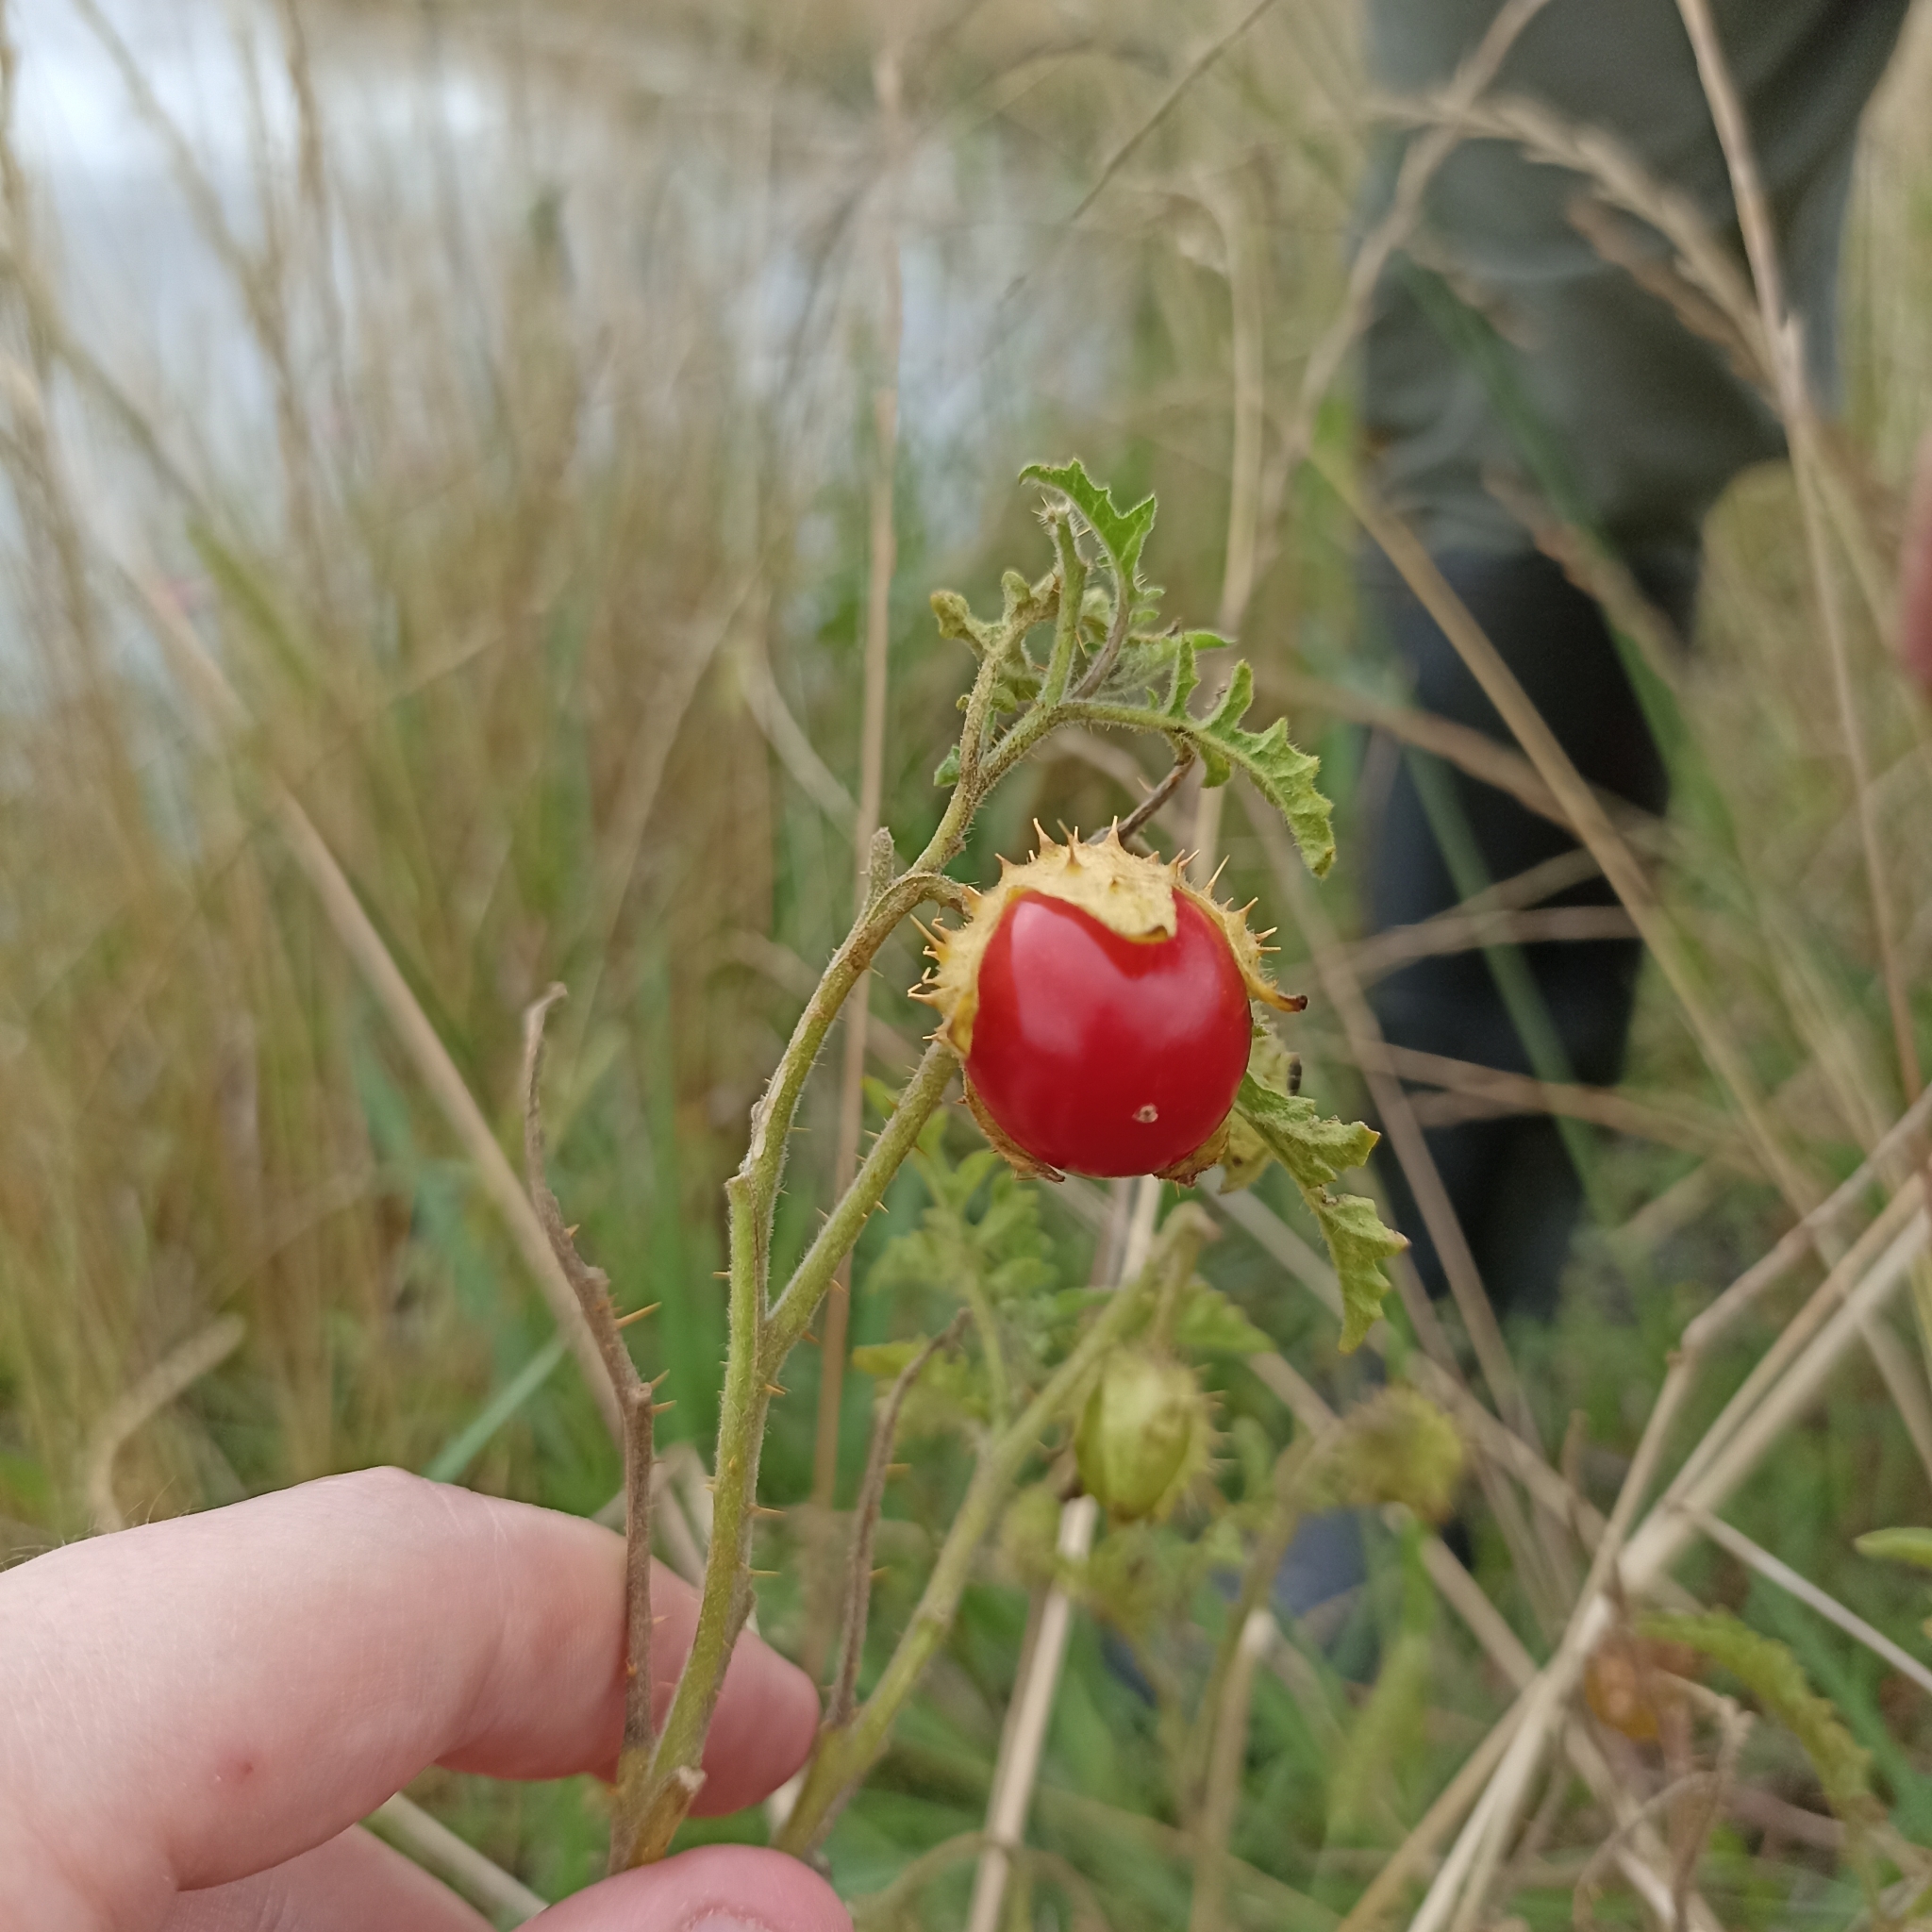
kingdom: Plantae
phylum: Tracheophyta
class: Magnoliopsida
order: Solanales
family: Solanaceae
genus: Solanum
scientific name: Solanum sisymbriifolium
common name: Red buffalo-bur
